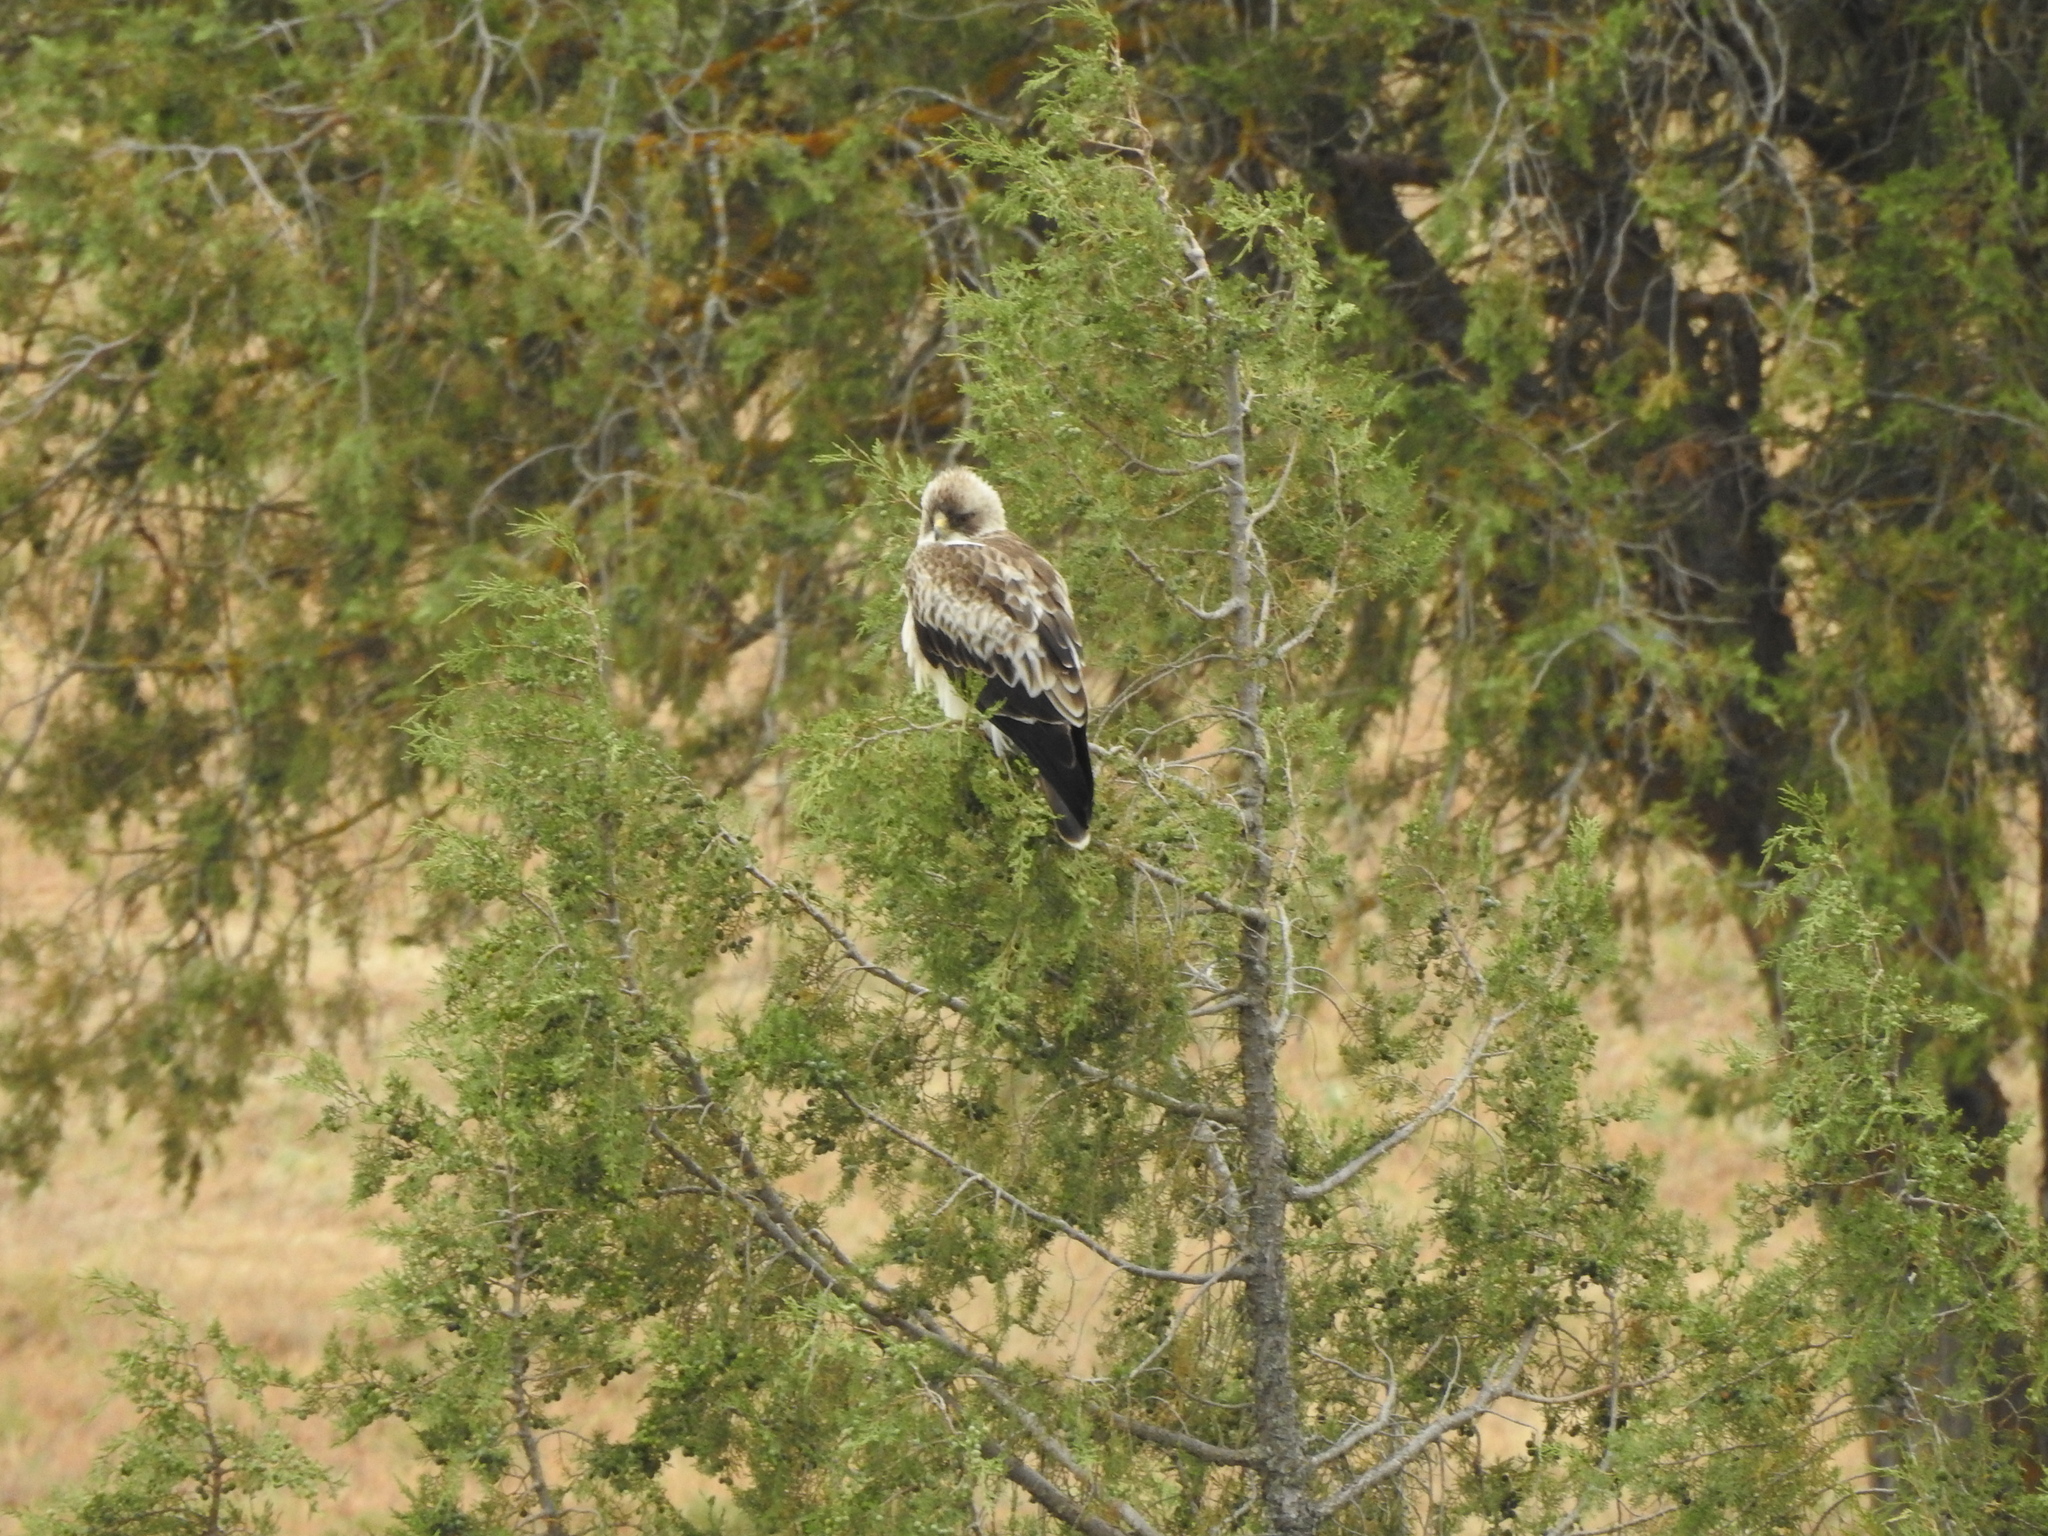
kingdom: Animalia
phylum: Chordata
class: Aves
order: Accipitriformes
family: Accipitridae
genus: Hieraaetus
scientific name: Hieraaetus pennatus
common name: Booted eagle
